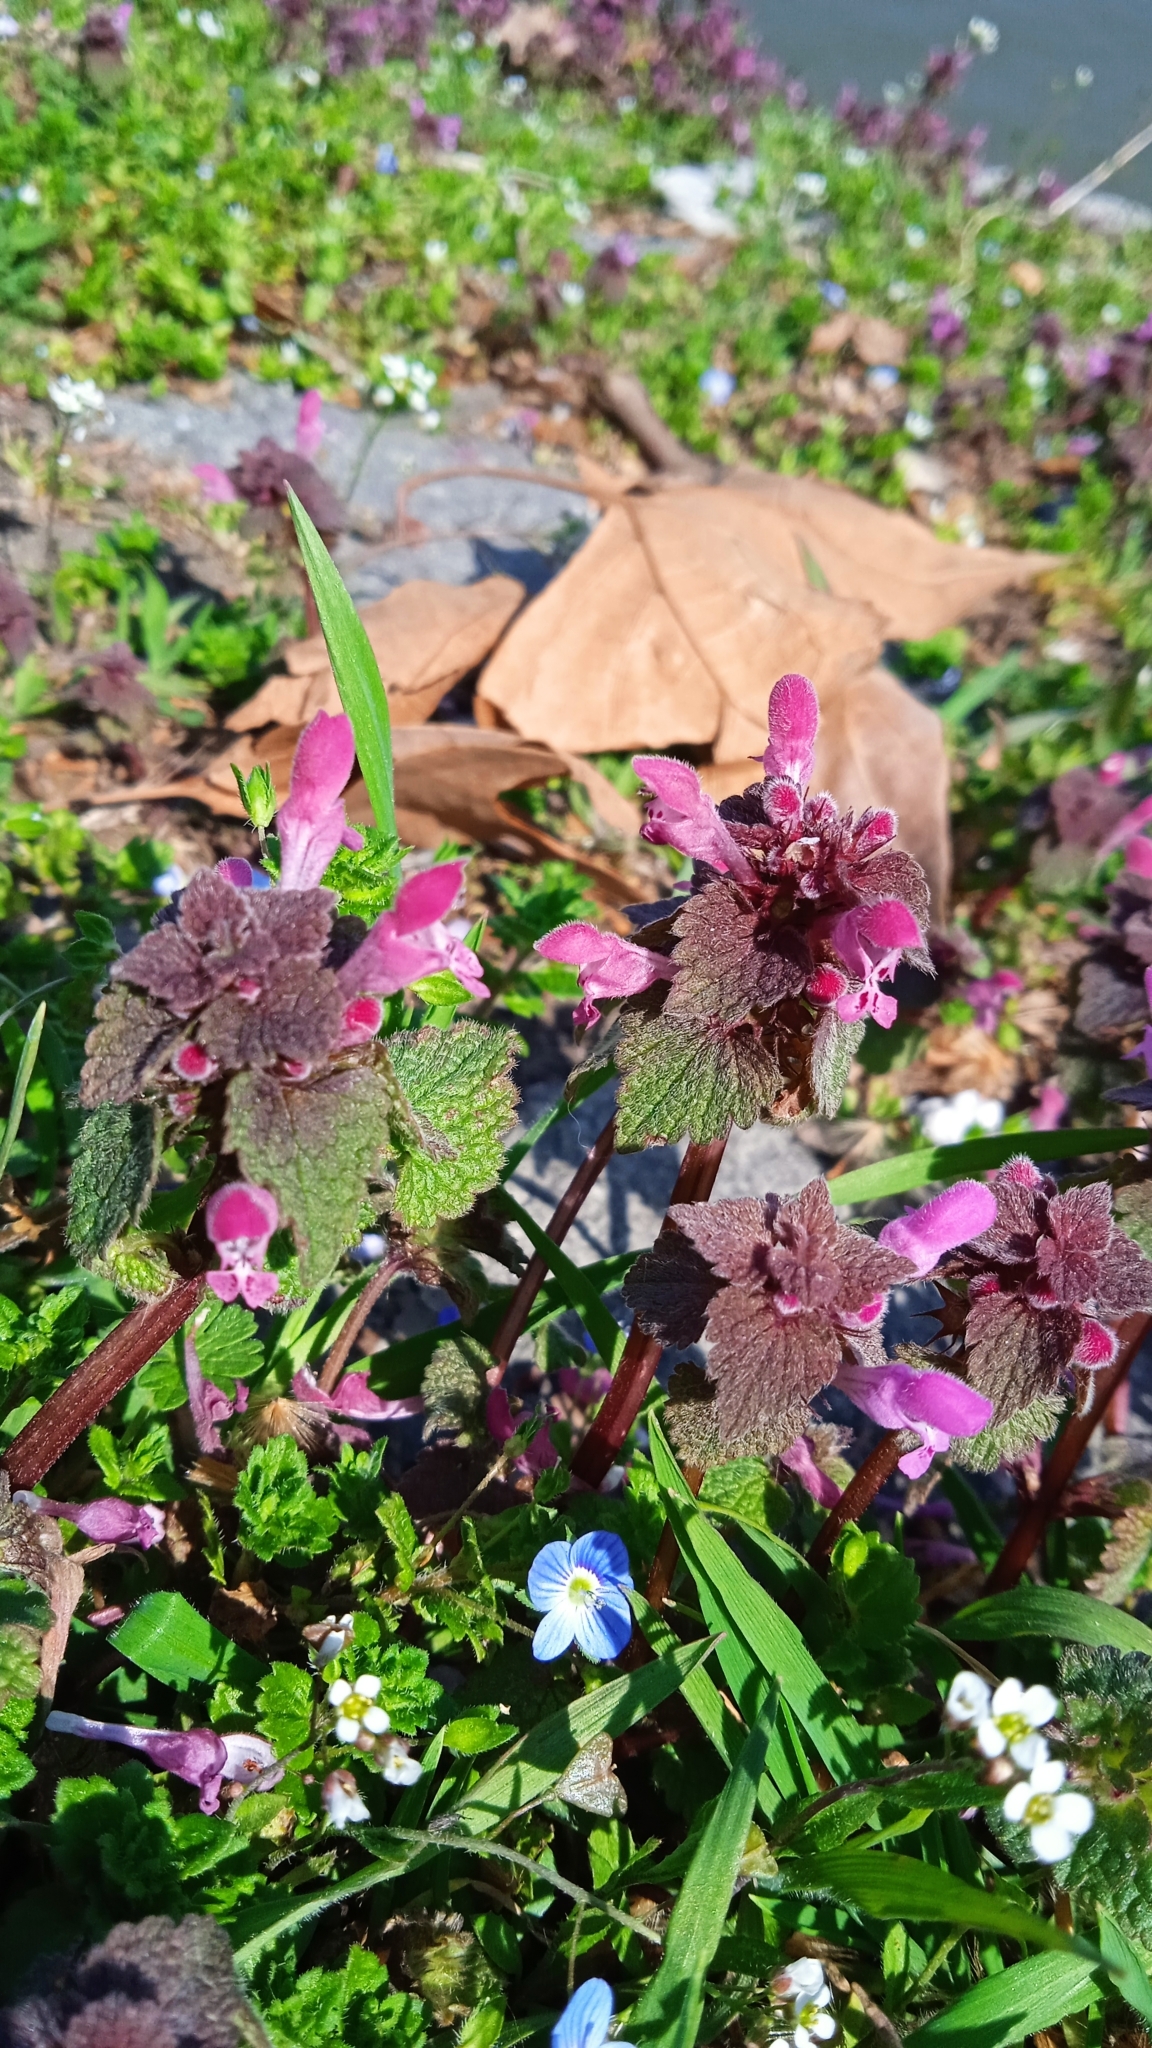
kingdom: Plantae
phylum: Tracheophyta
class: Magnoliopsida
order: Lamiales
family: Lamiaceae
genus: Lamium
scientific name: Lamium purpureum
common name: Red dead-nettle
